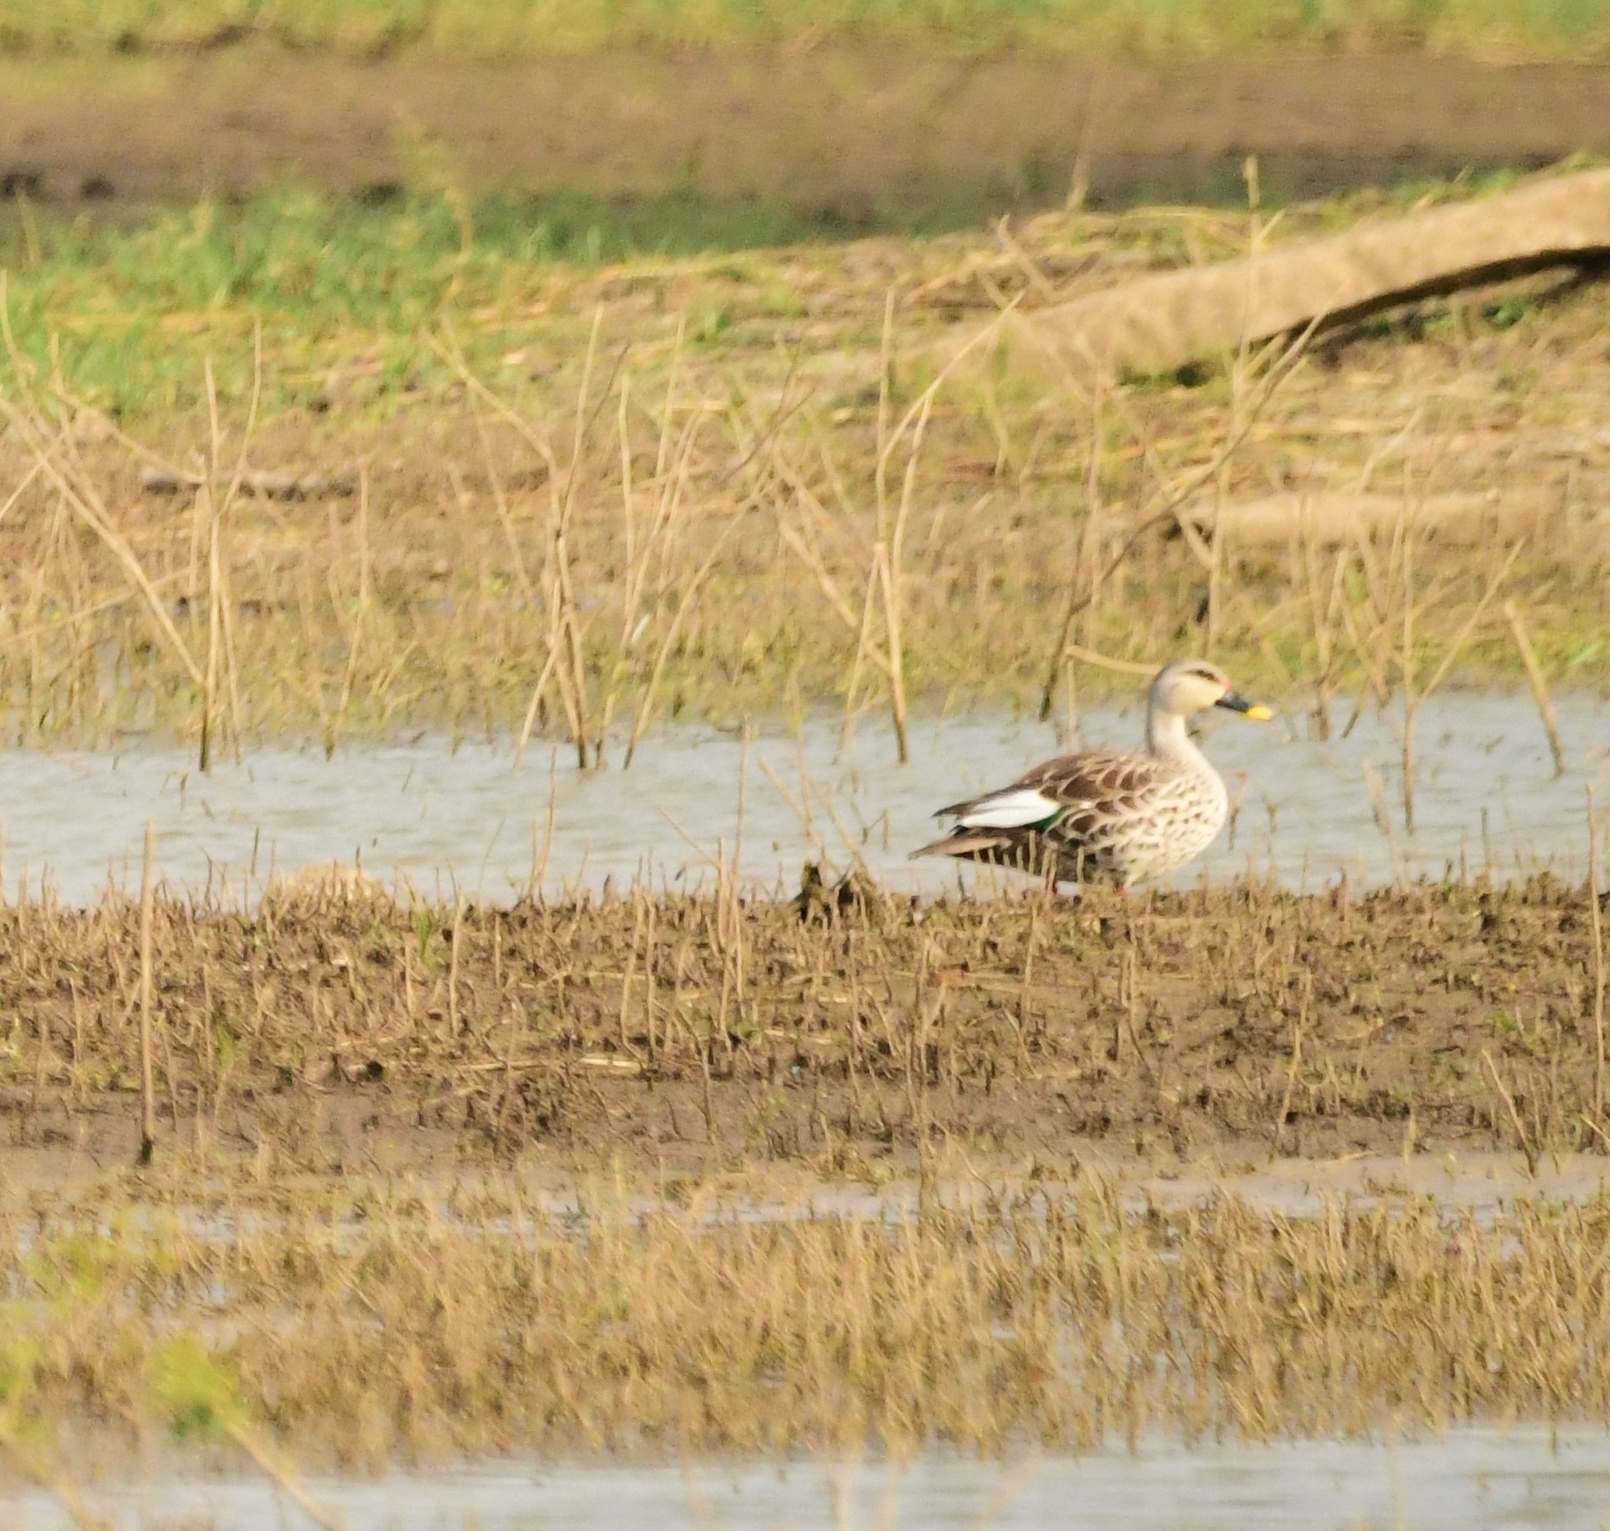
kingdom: Animalia
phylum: Chordata
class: Aves
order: Anseriformes
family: Anatidae
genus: Anas
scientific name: Anas poecilorhyncha
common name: Indian spot-billed duck
